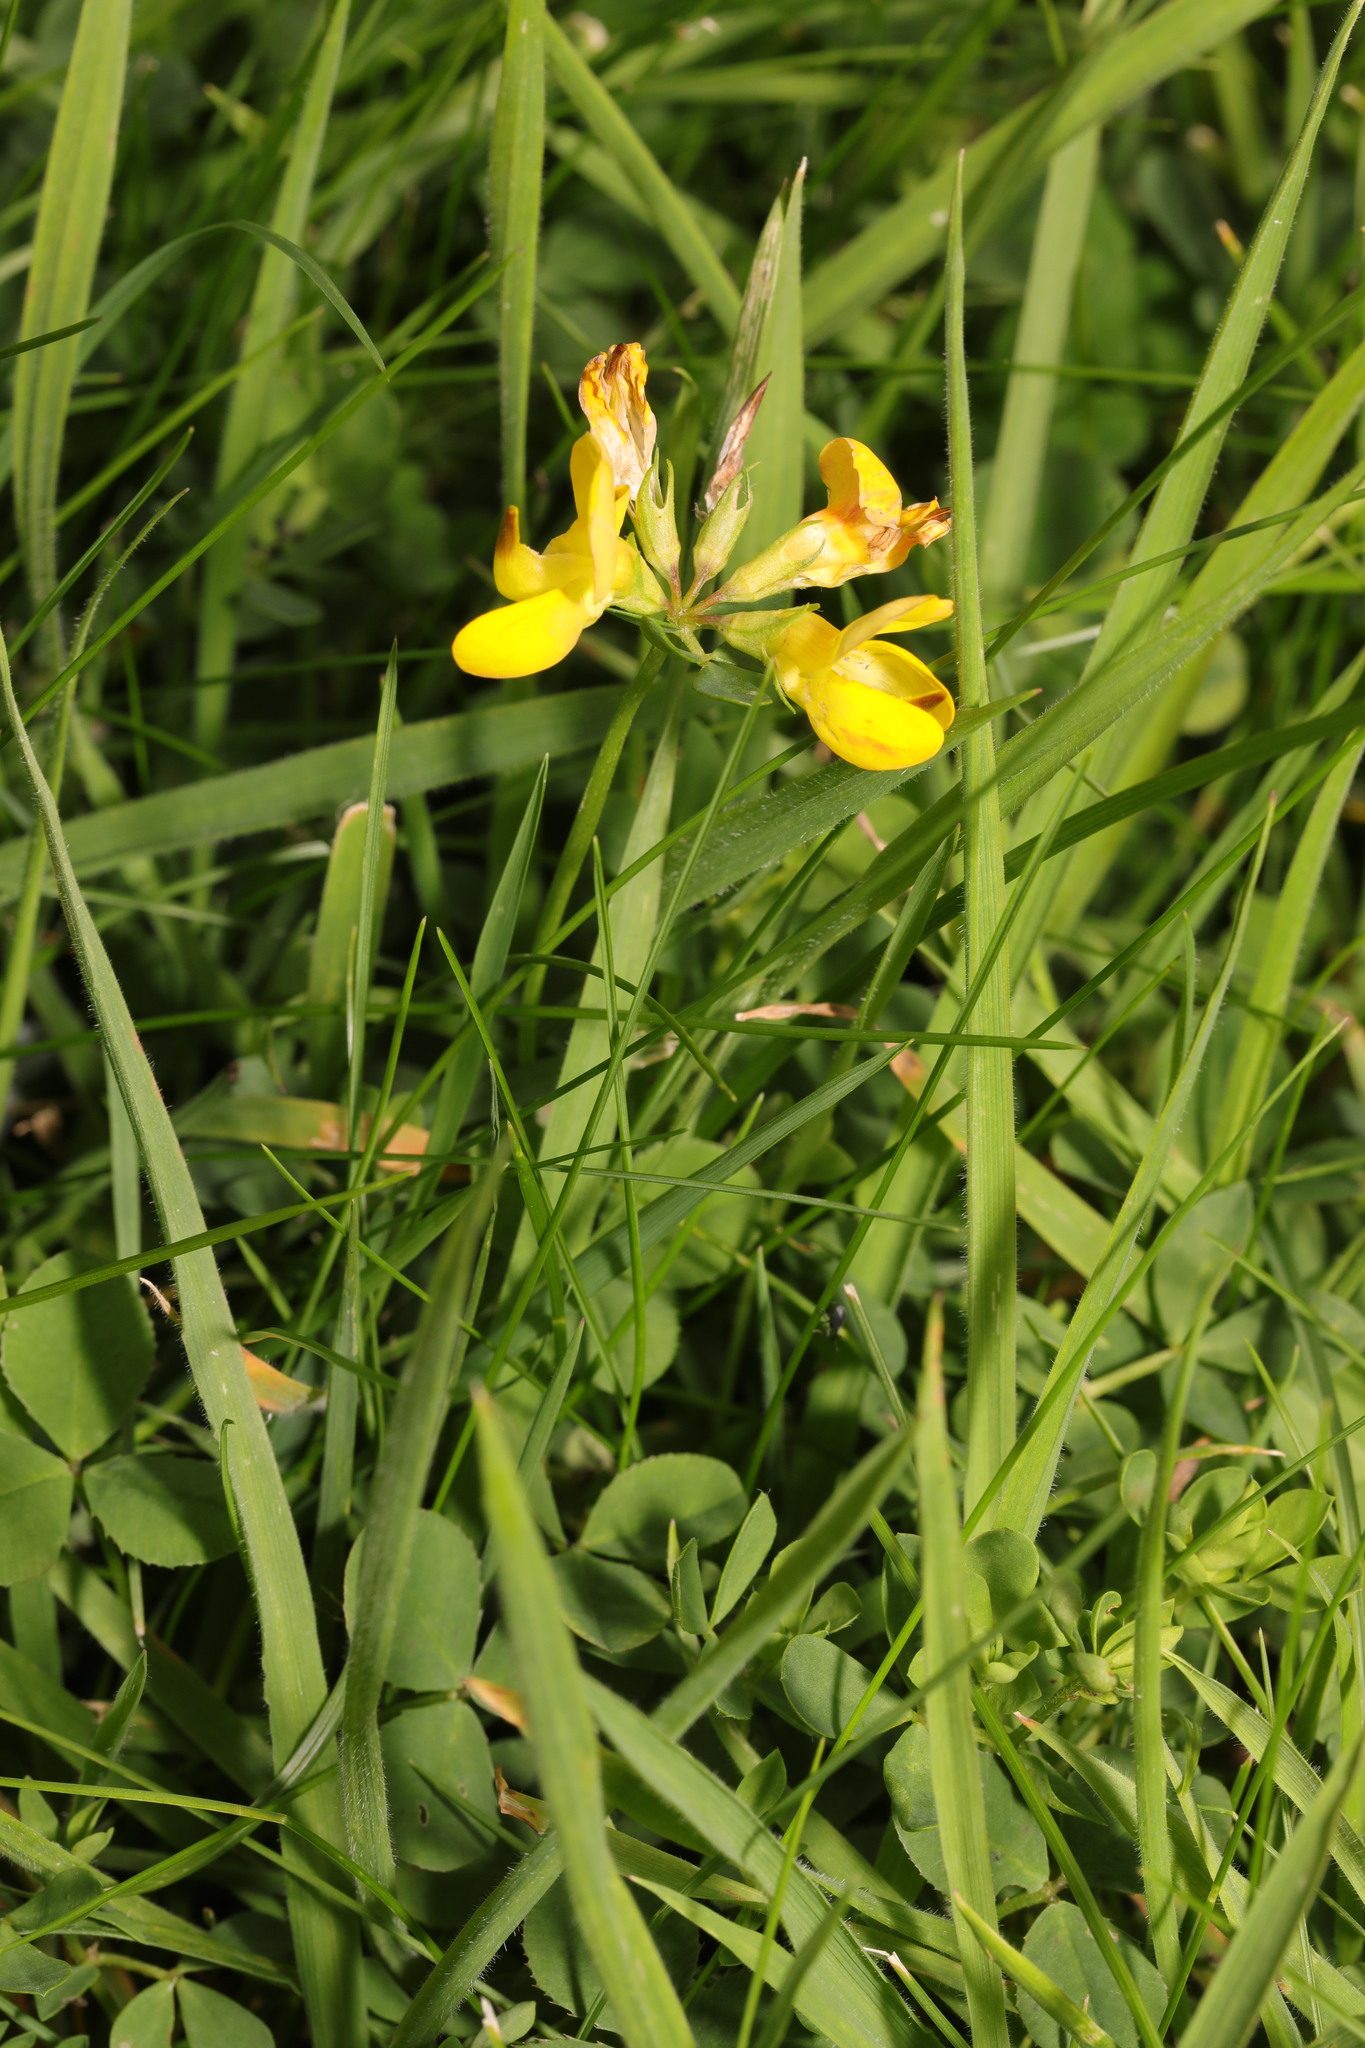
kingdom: Plantae
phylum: Tracheophyta
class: Magnoliopsida
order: Fabales
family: Fabaceae
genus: Lotus
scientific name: Lotus corniculatus
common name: Common bird's-foot-trefoil
